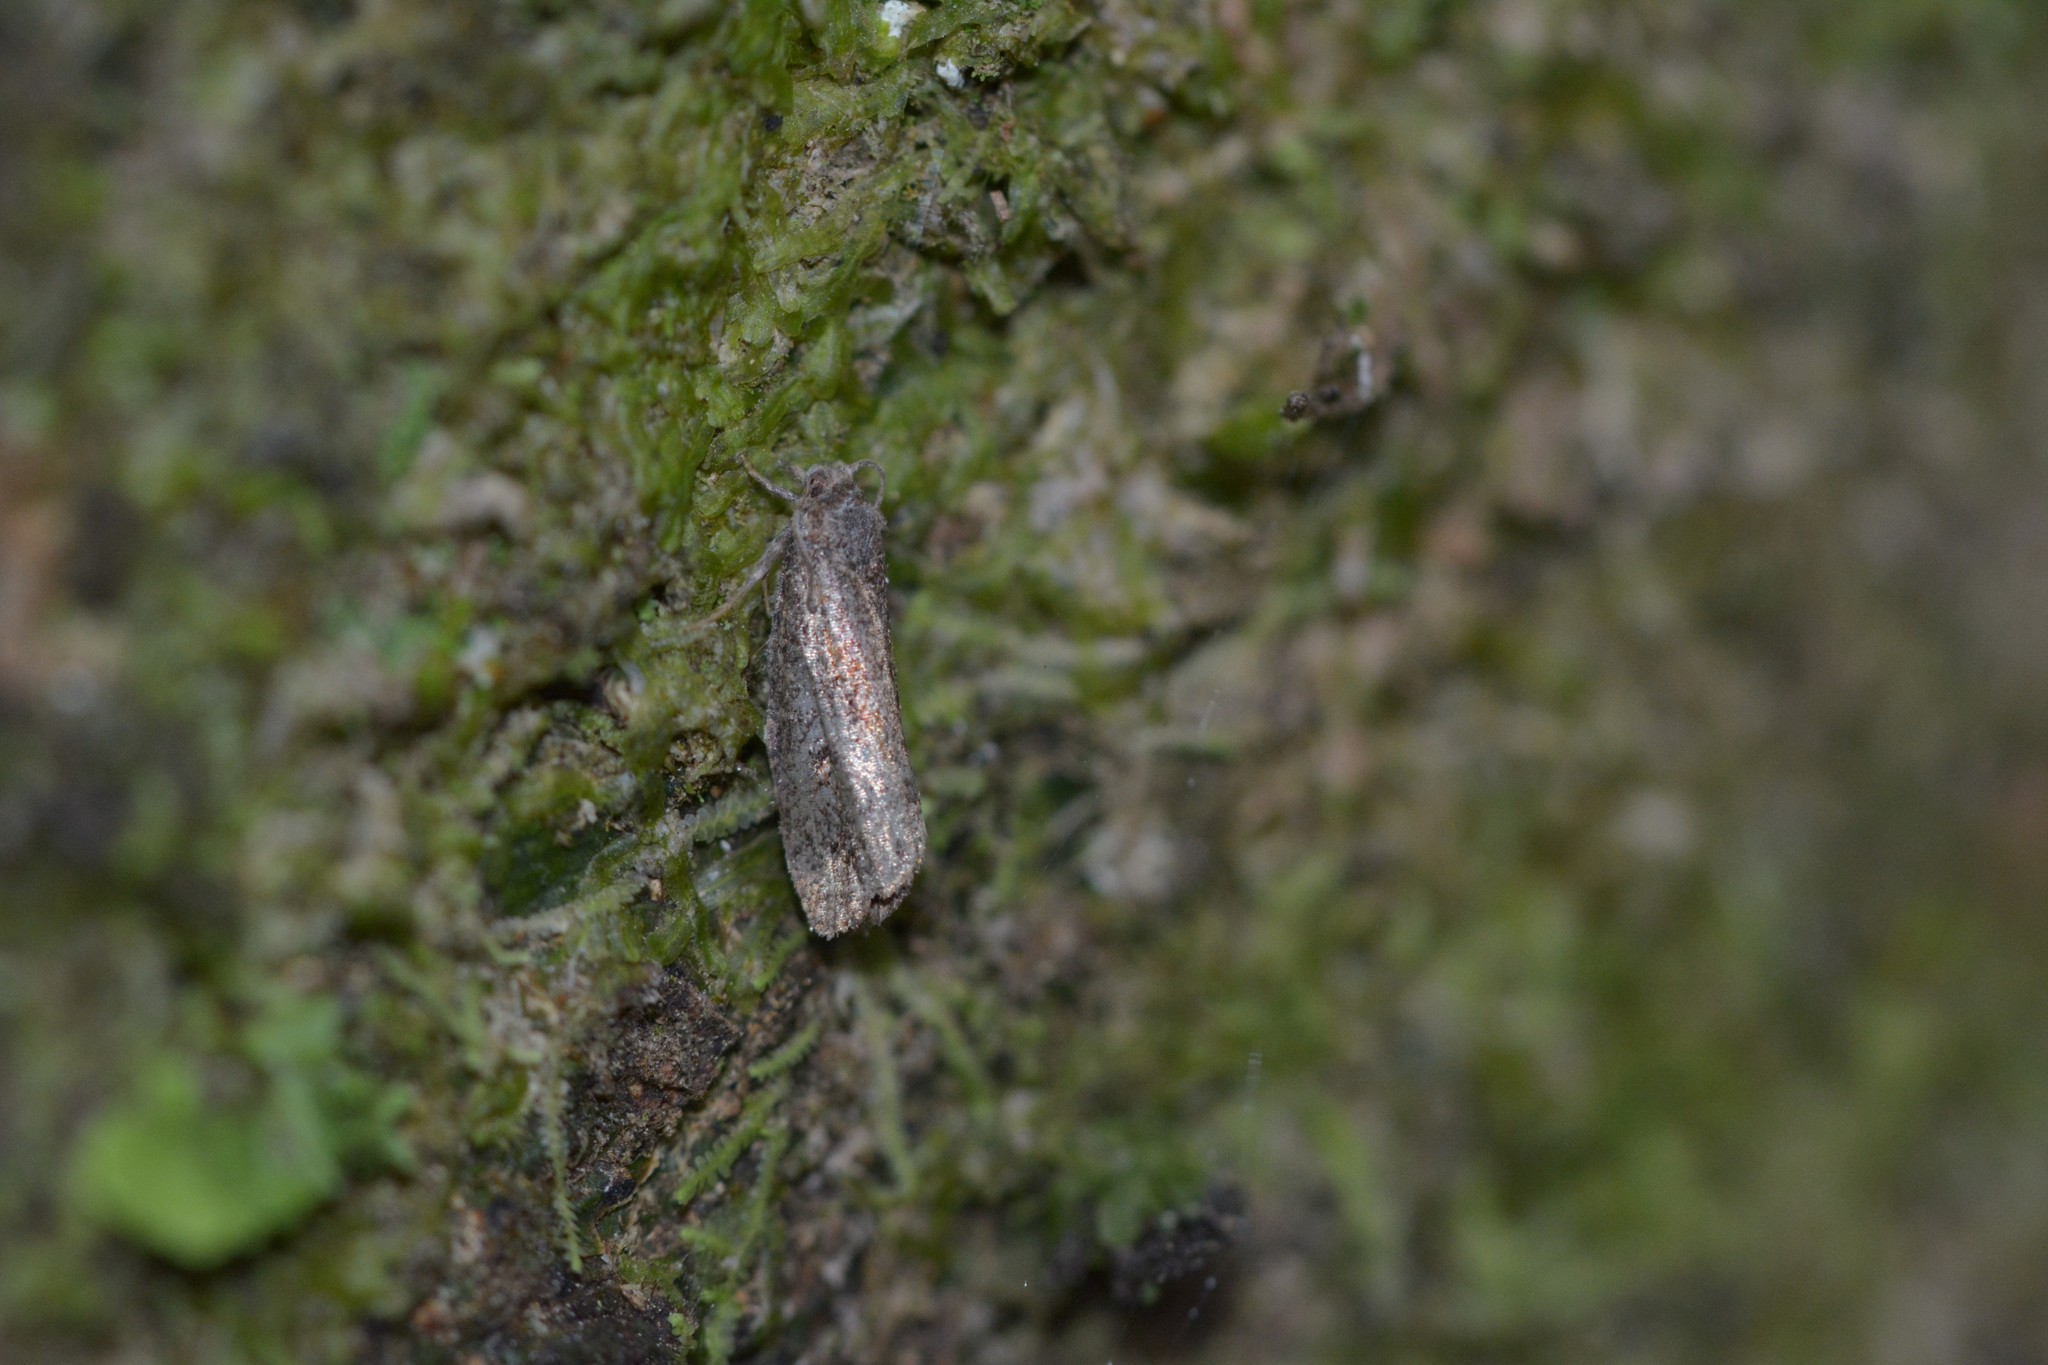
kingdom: Animalia
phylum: Arthropoda
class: Insecta
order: Lepidoptera
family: Tortricidae
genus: Cryptaspasma
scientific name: Cryptaspasma querula
